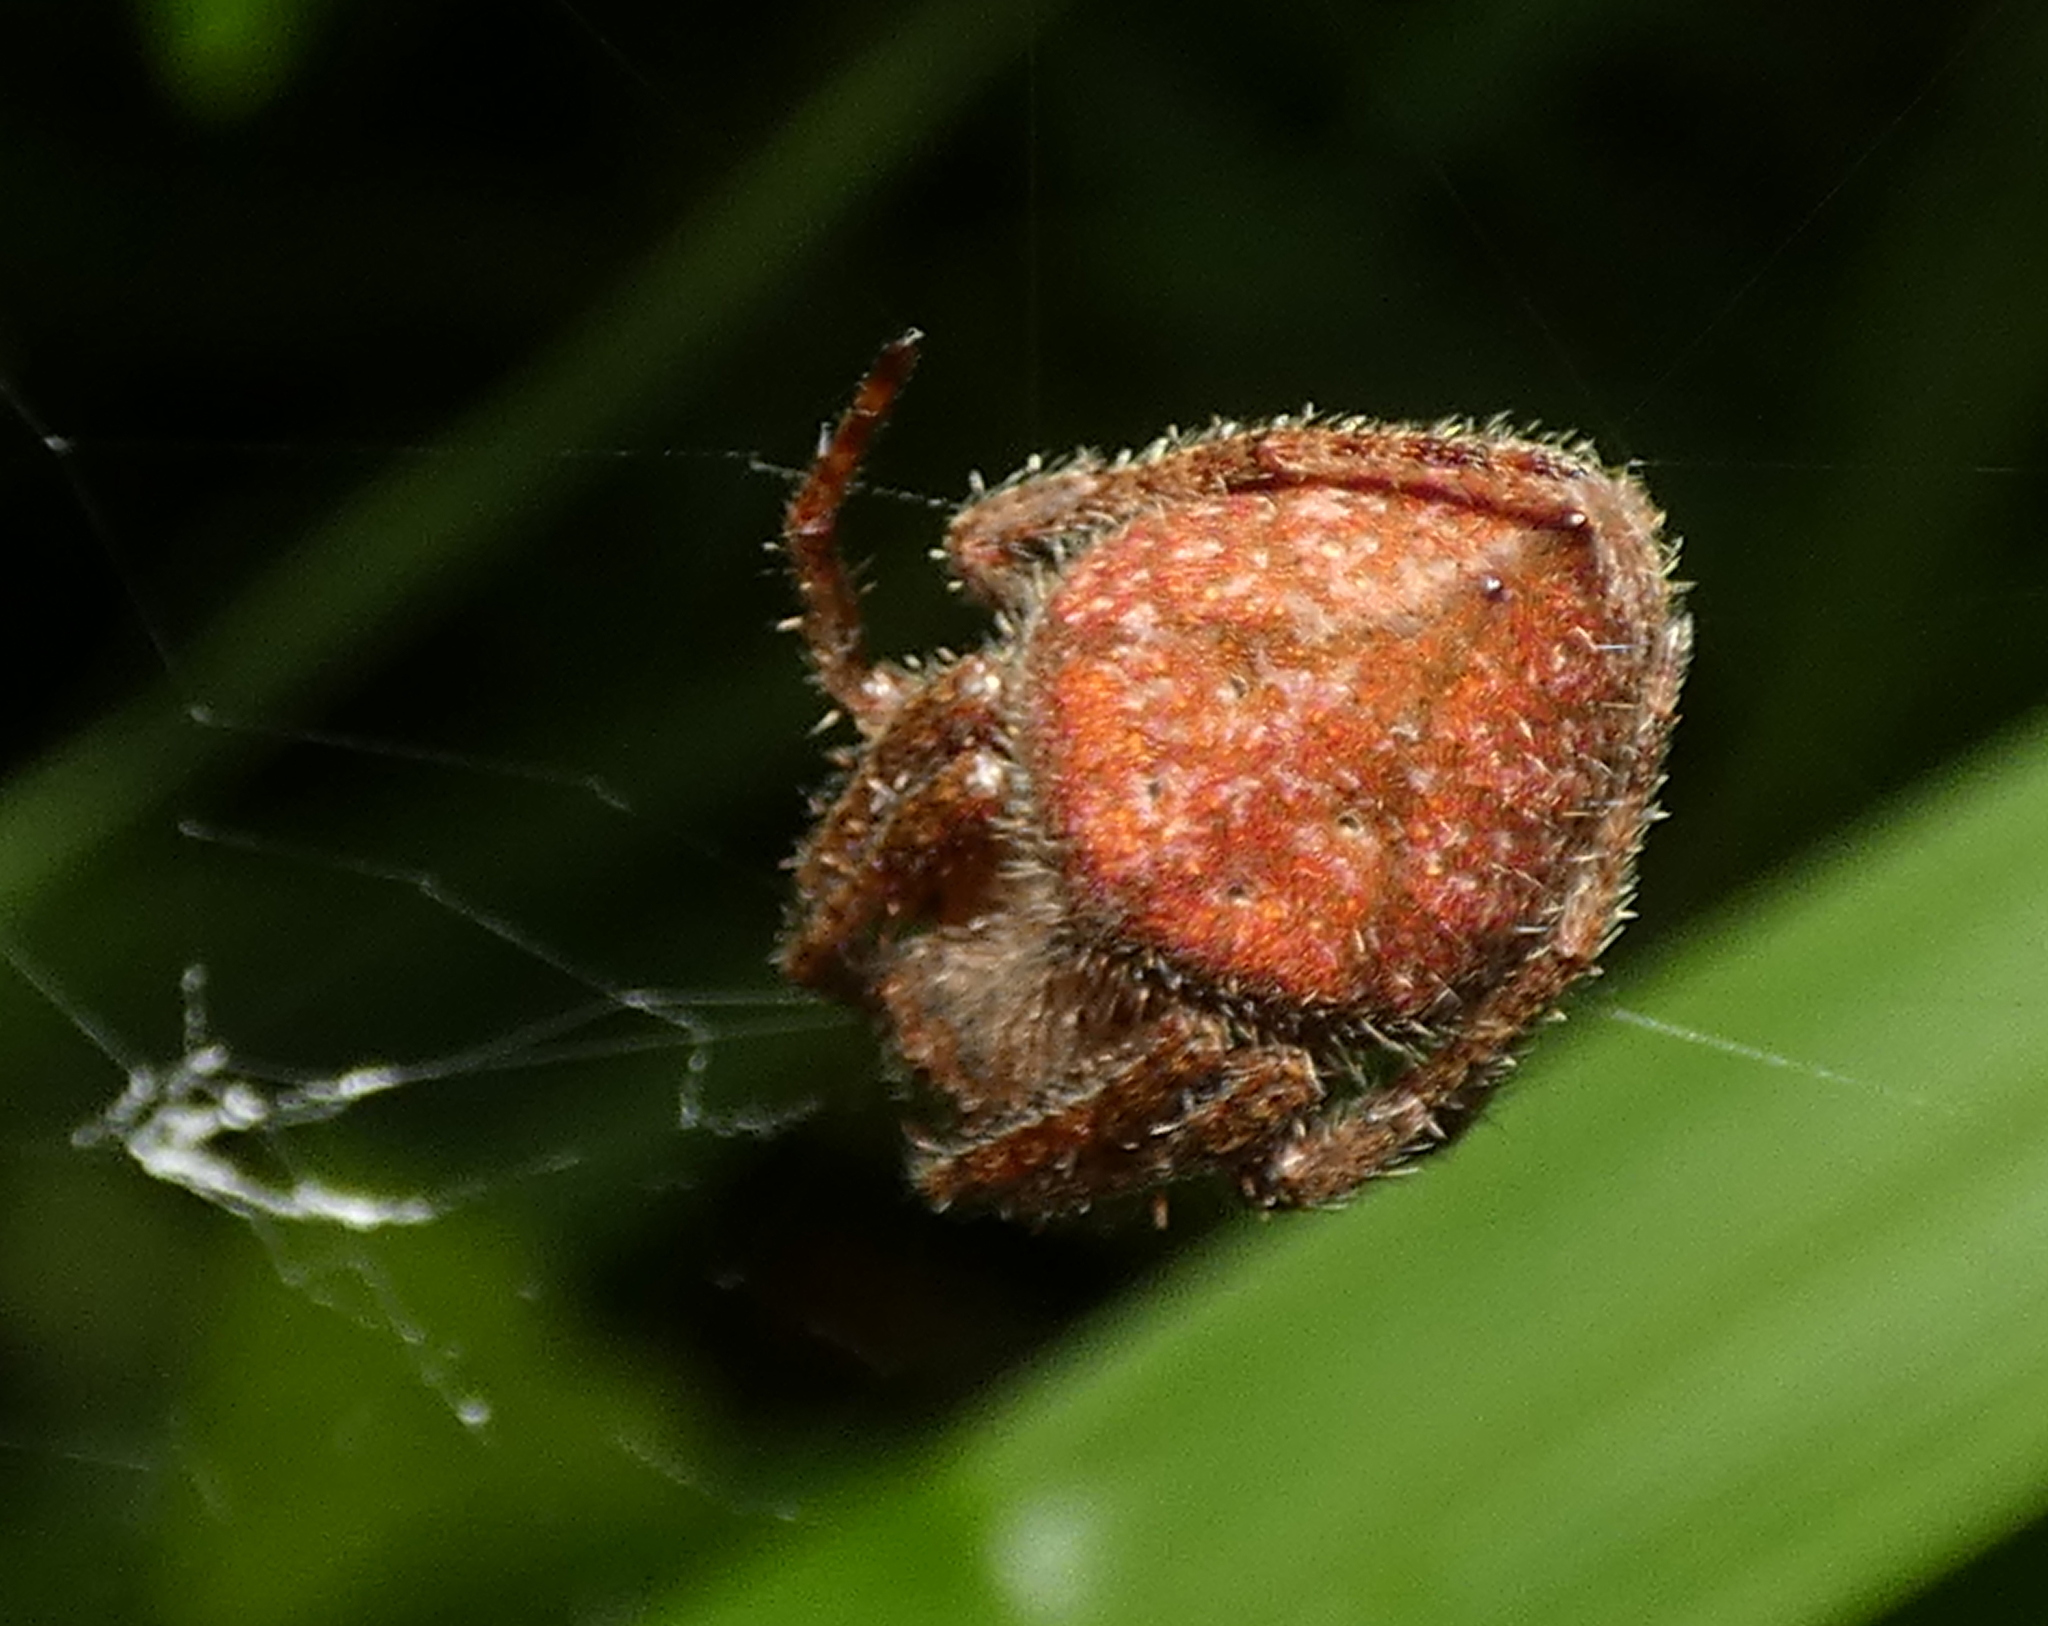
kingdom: Animalia
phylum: Arthropoda
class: Arachnida
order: Araneae
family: Araneidae
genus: Eriophora
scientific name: Eriophora edax
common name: Orb weavers
